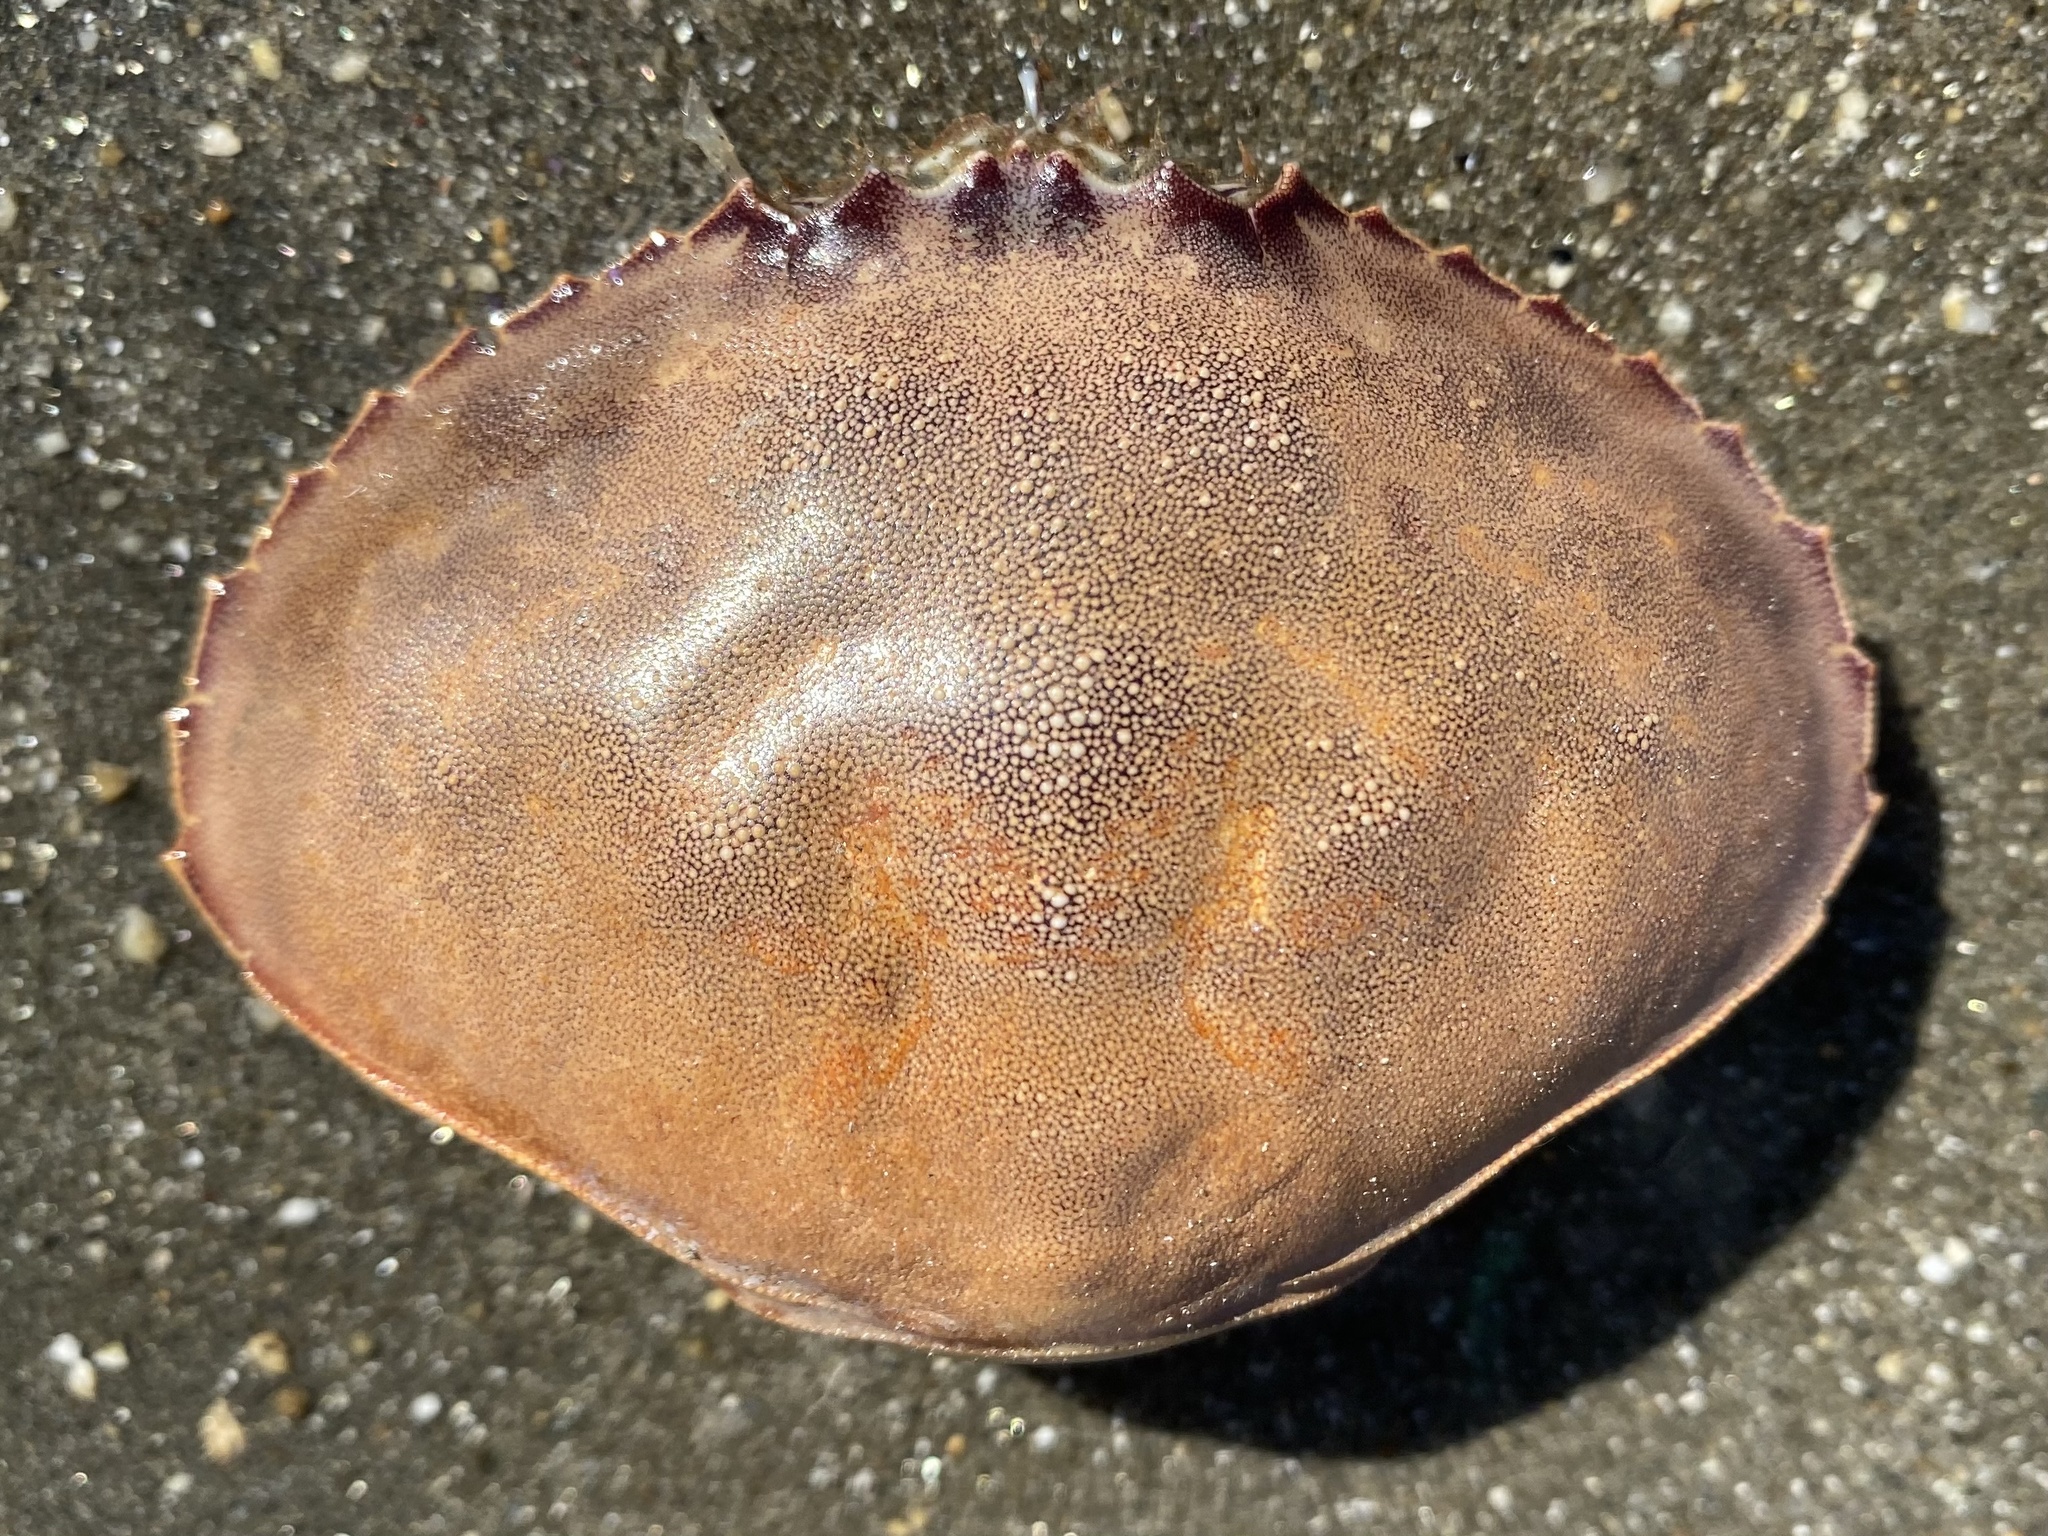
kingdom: Animalia
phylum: Arthropoda
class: Malacostraca
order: Decapoda
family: Cancridae
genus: Metacarcinus
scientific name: Metacarcinus gracilis
